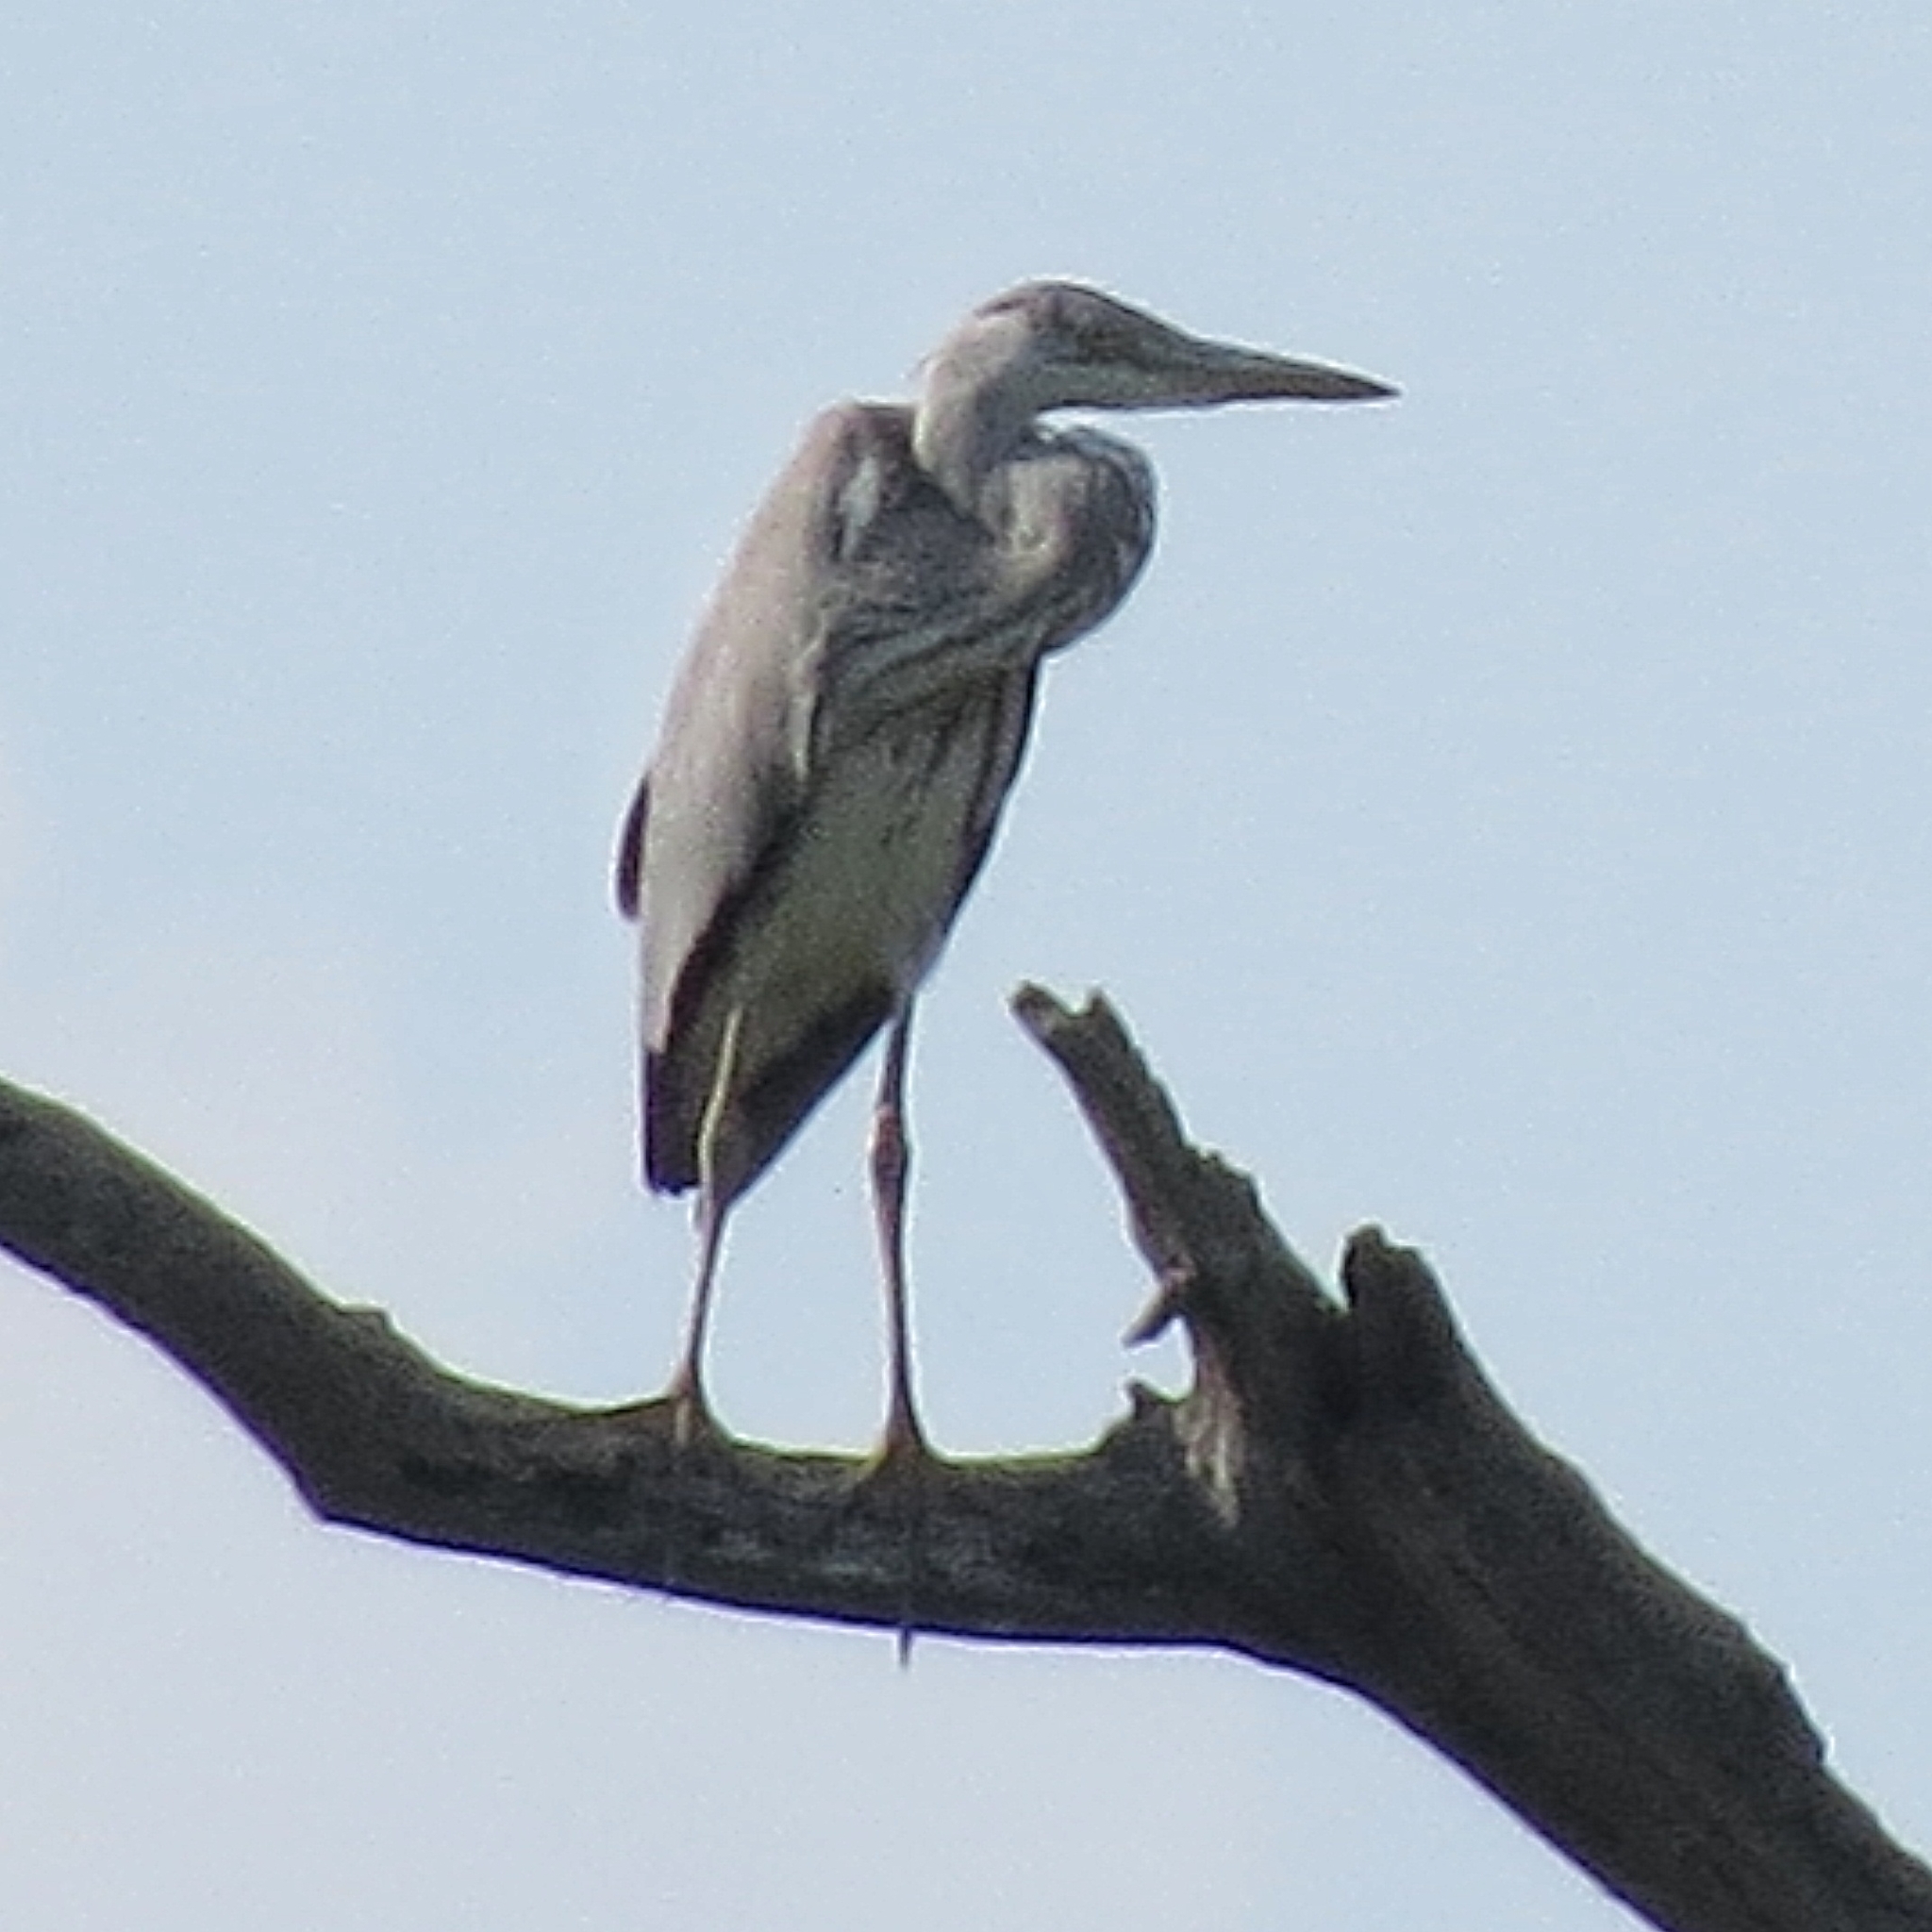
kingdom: Animalia
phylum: Chordata
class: Aves
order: Pelecaniformes
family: Ardeidae
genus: Ardea
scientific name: Ardea cinerea
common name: Grey heron
